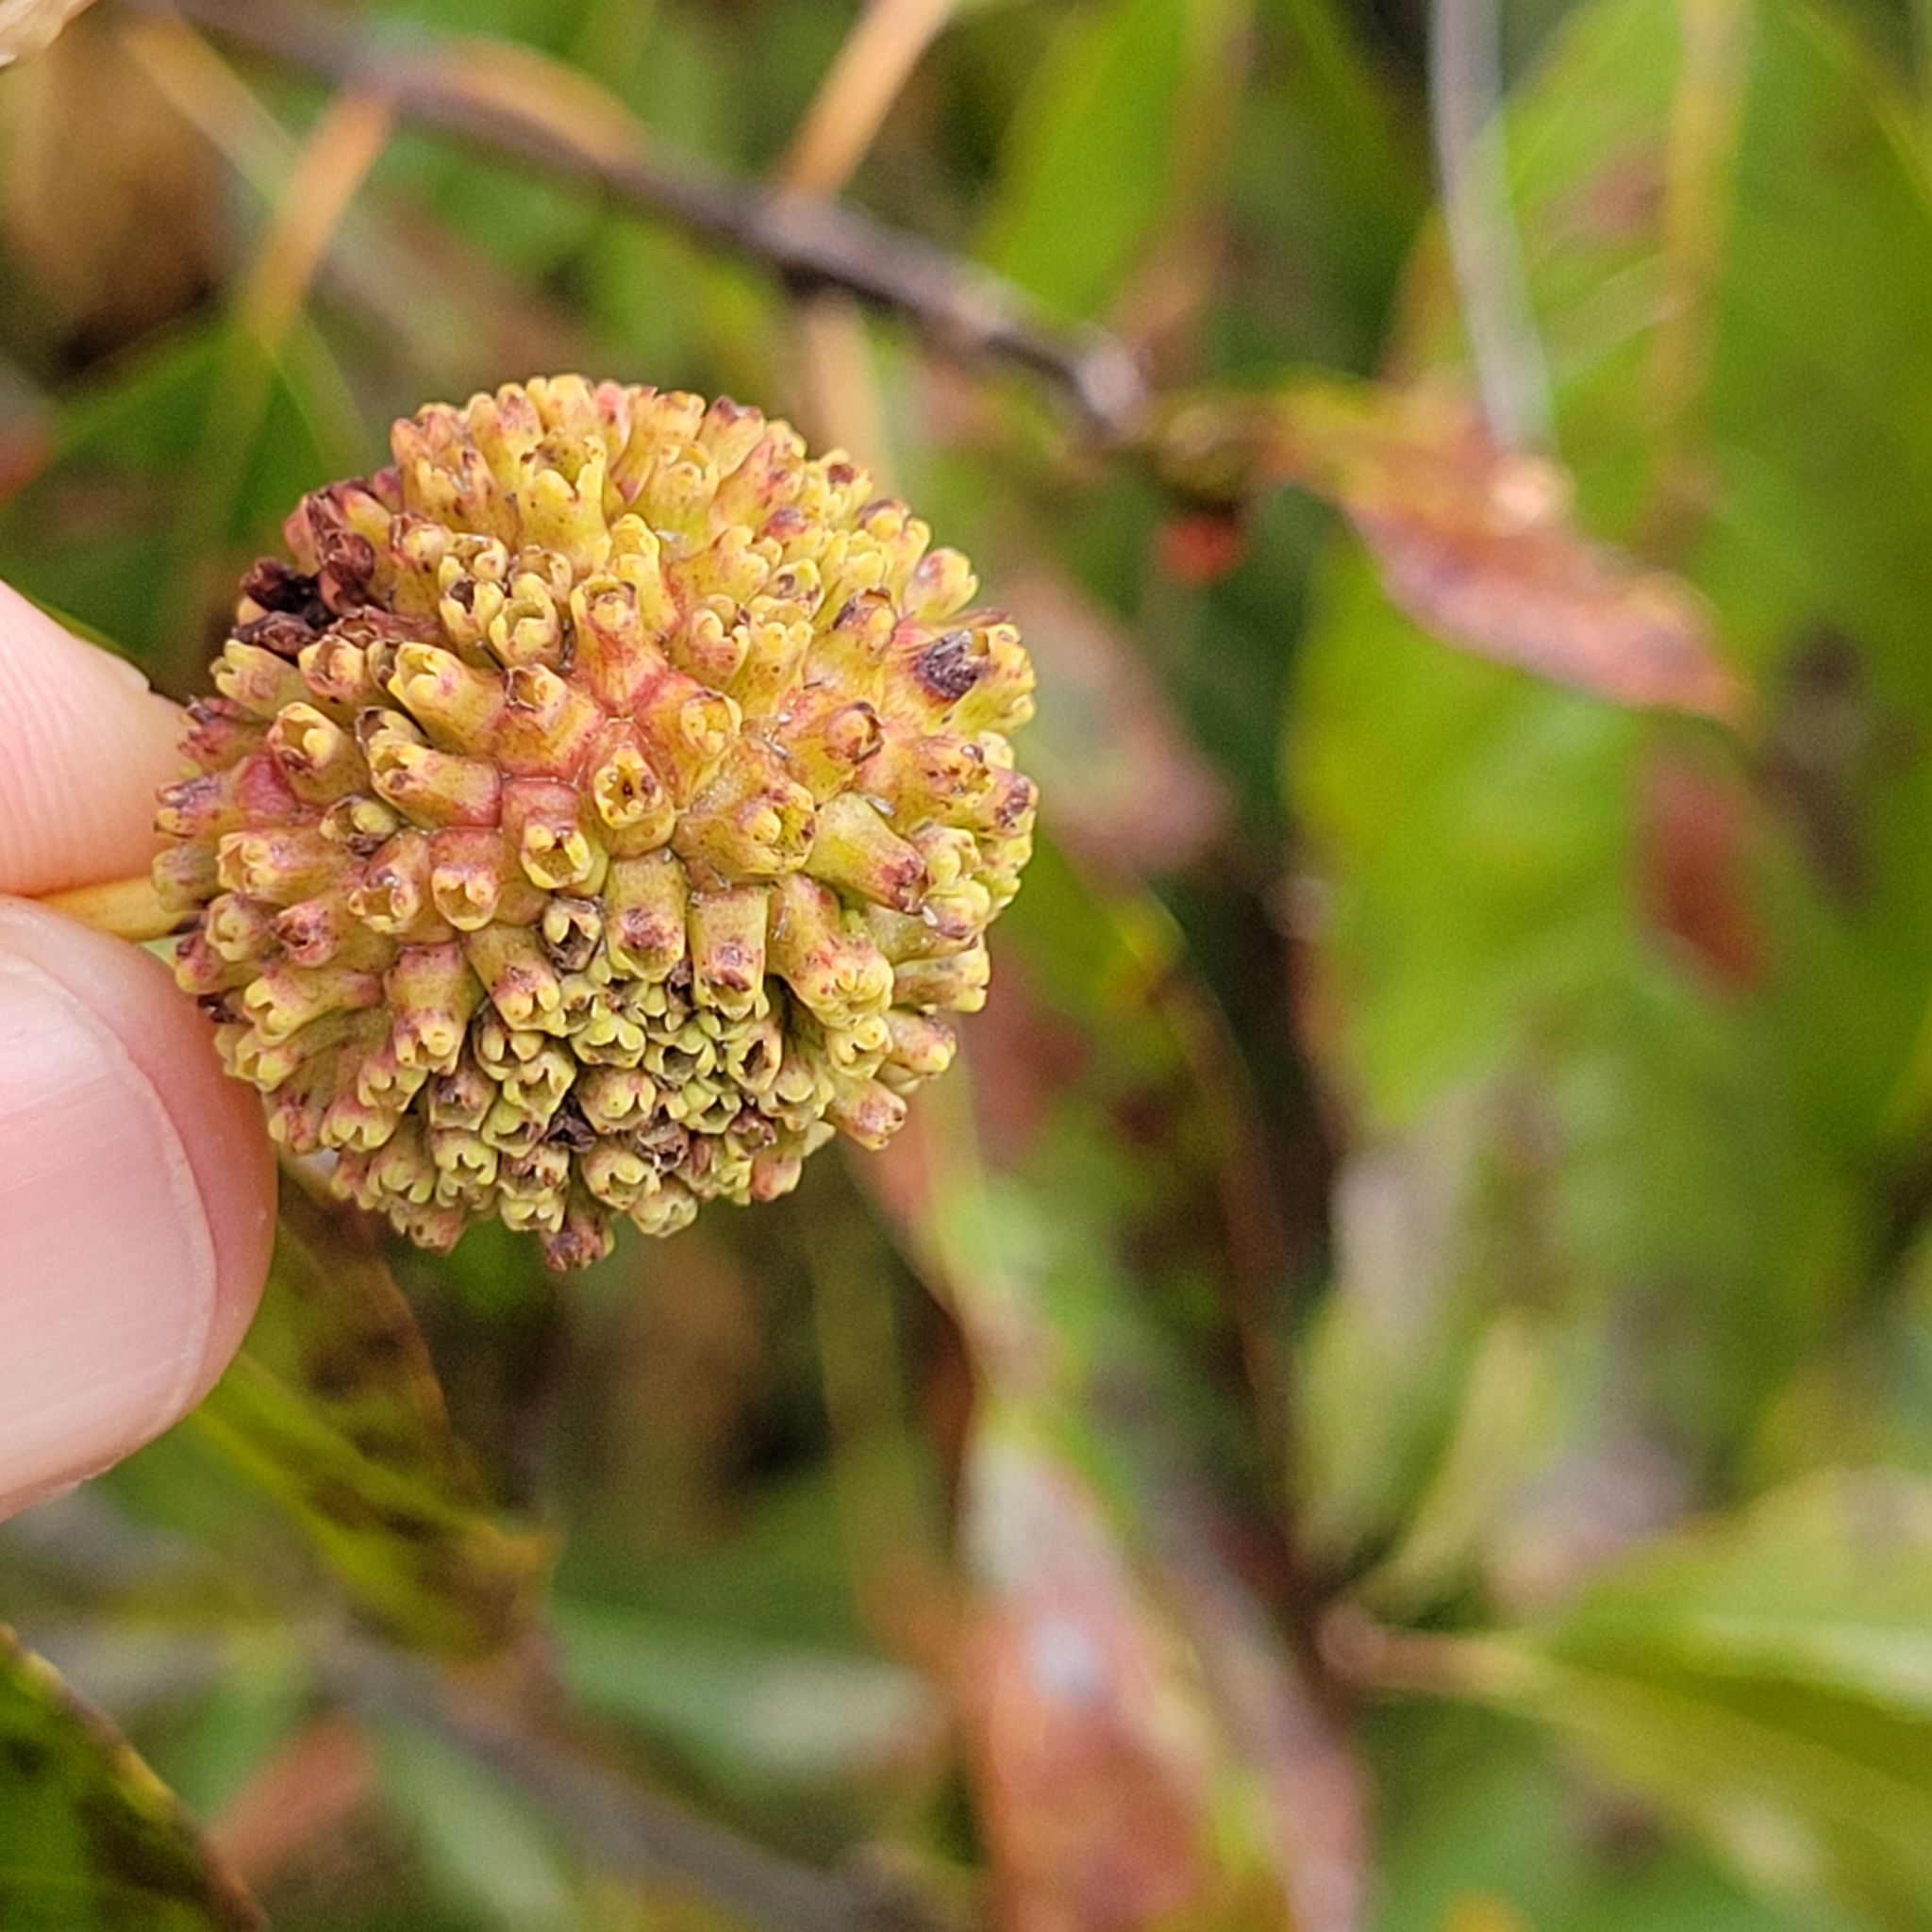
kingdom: Plantae
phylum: Tracheophyta
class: Magnoliopsida
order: Gentianales
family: Rubiaceae
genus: Cephalanthus
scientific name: Cephalanthus occidentalis
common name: Button-willow
